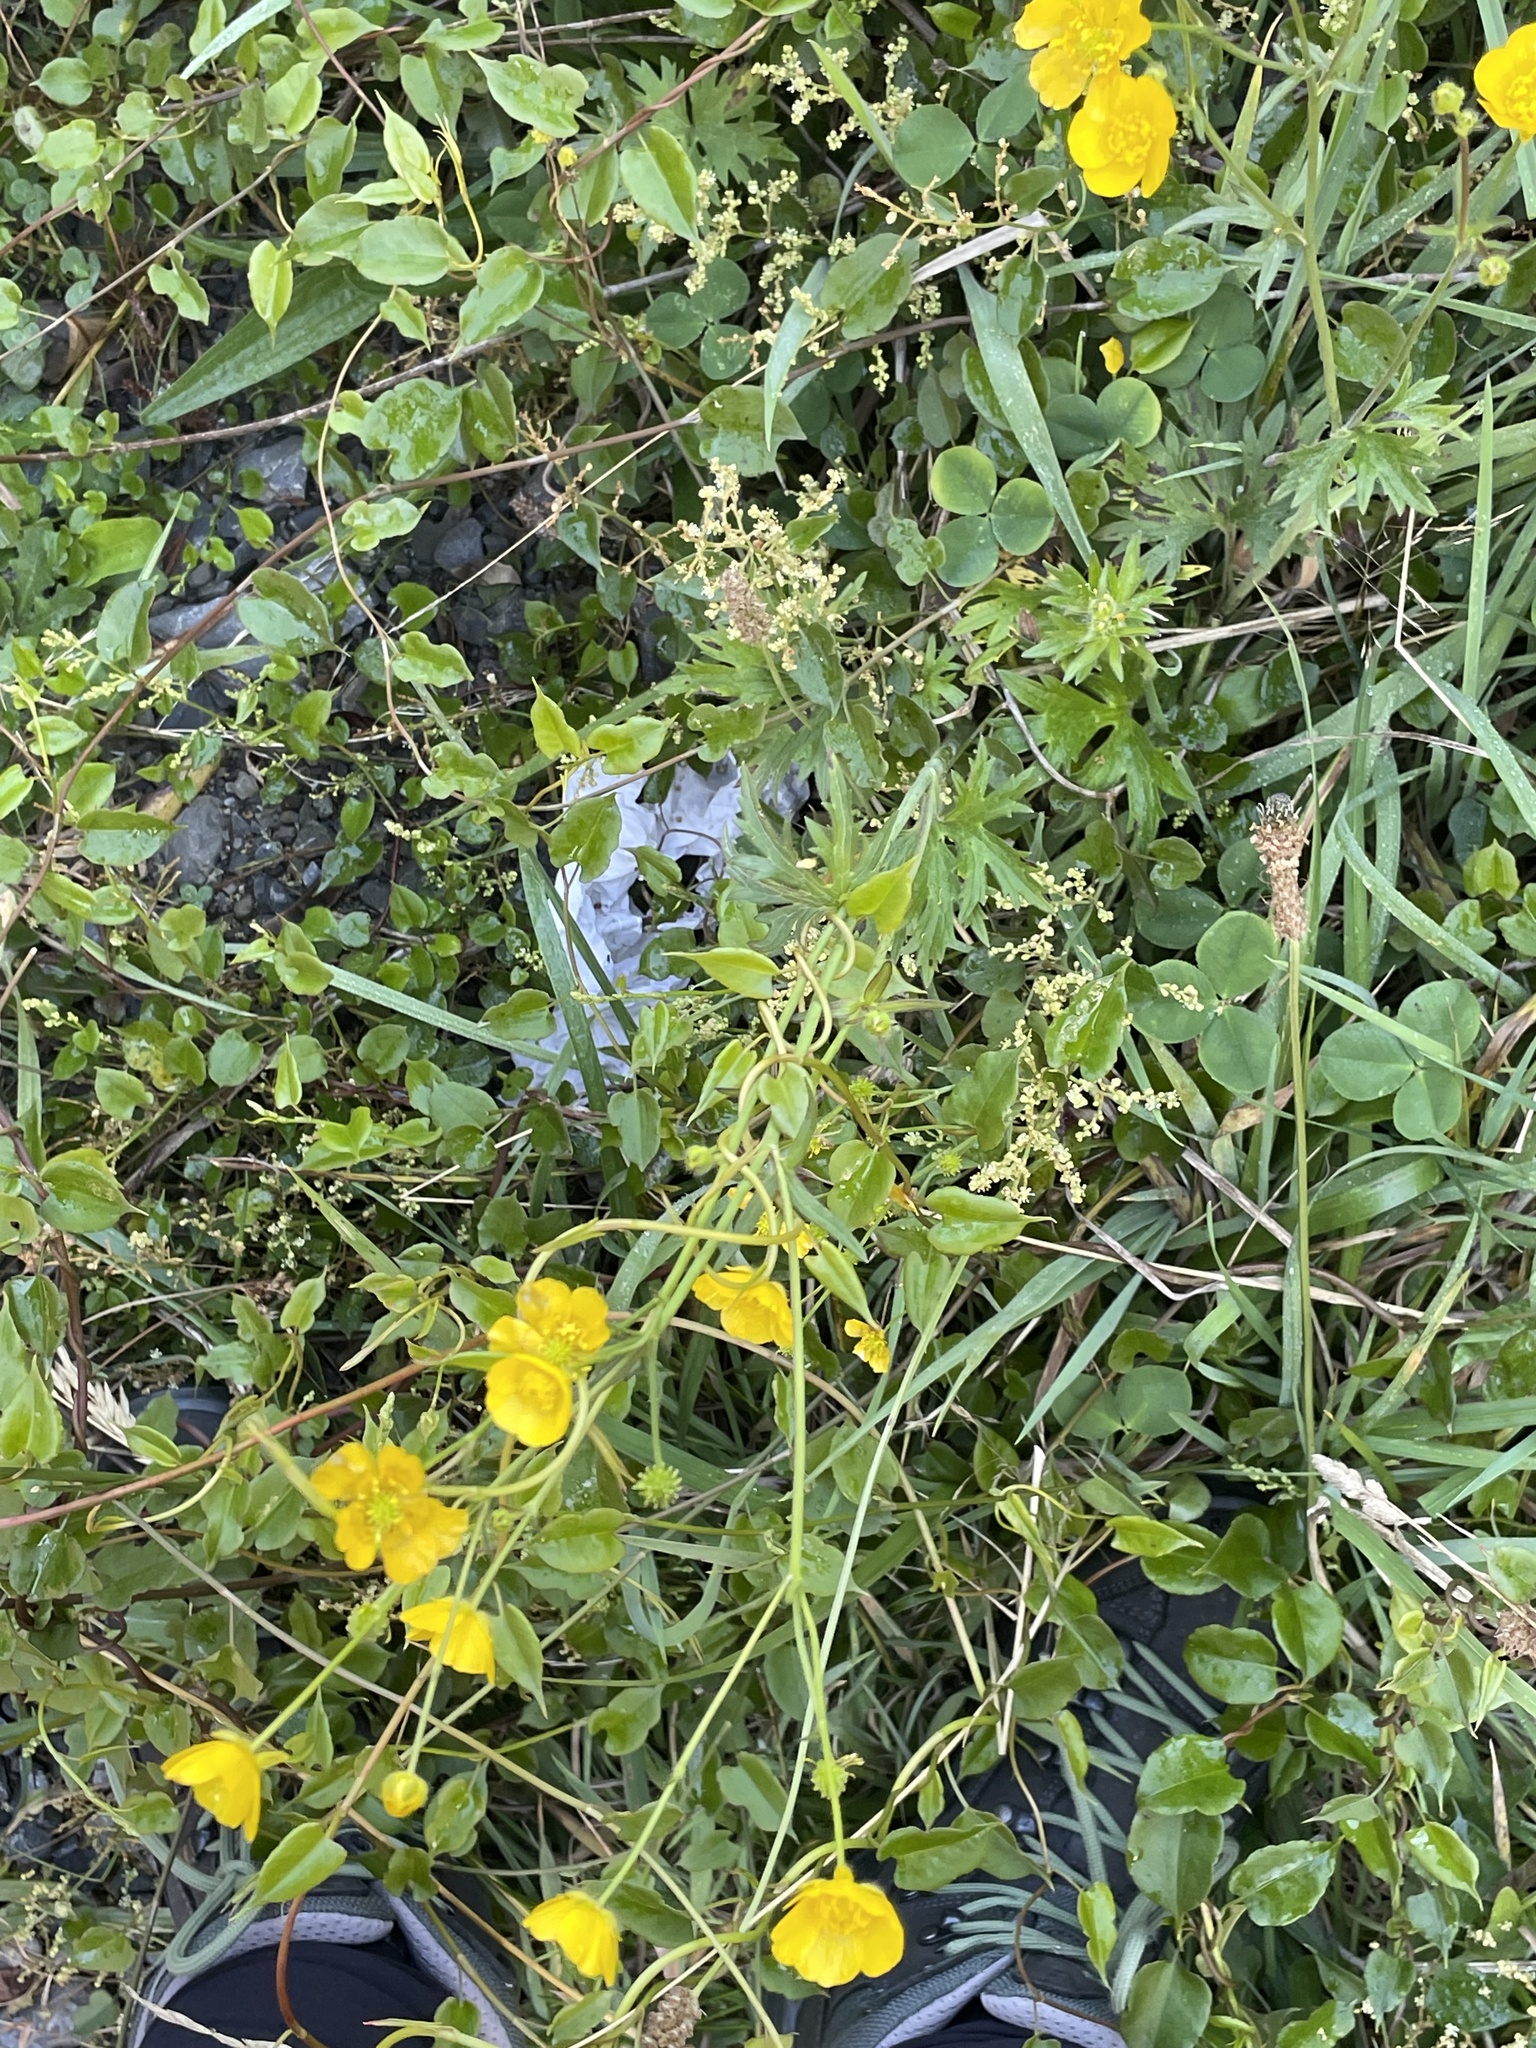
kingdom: Plantae
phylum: Tracheophyta
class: Magnoliopsida
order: Ranunculales
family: Ranunculaceae
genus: Ranunculus
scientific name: Ranunculus acris
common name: Meadow buttercup
